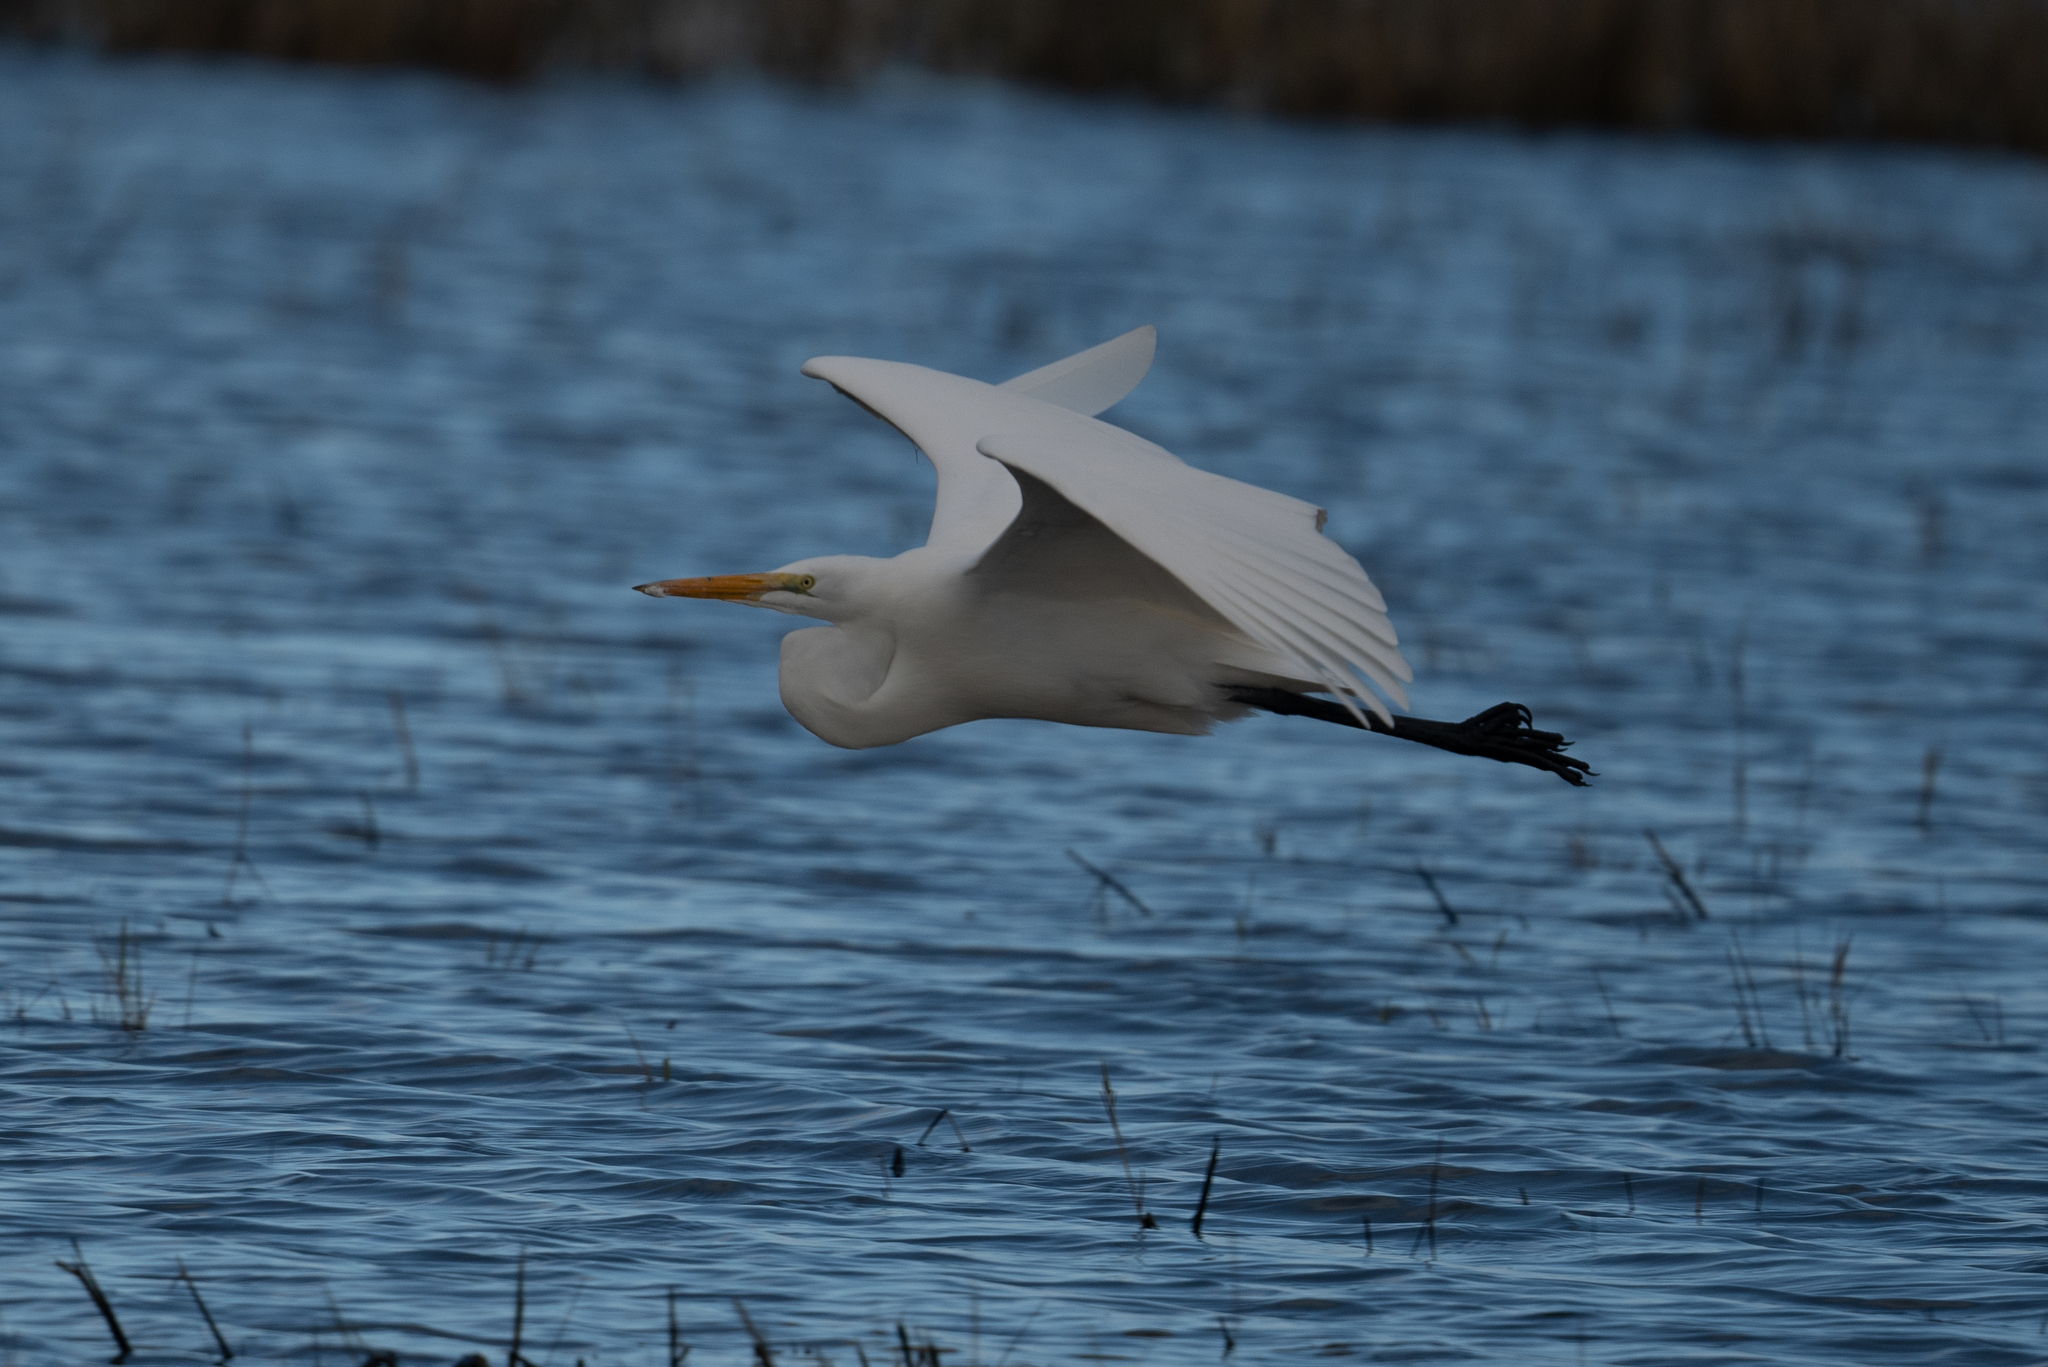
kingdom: Animalia
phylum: Chordata
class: Aves
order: Pelecaniformes
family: Ardeidae
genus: Ardea
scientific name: Ardea alba
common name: Great egret
